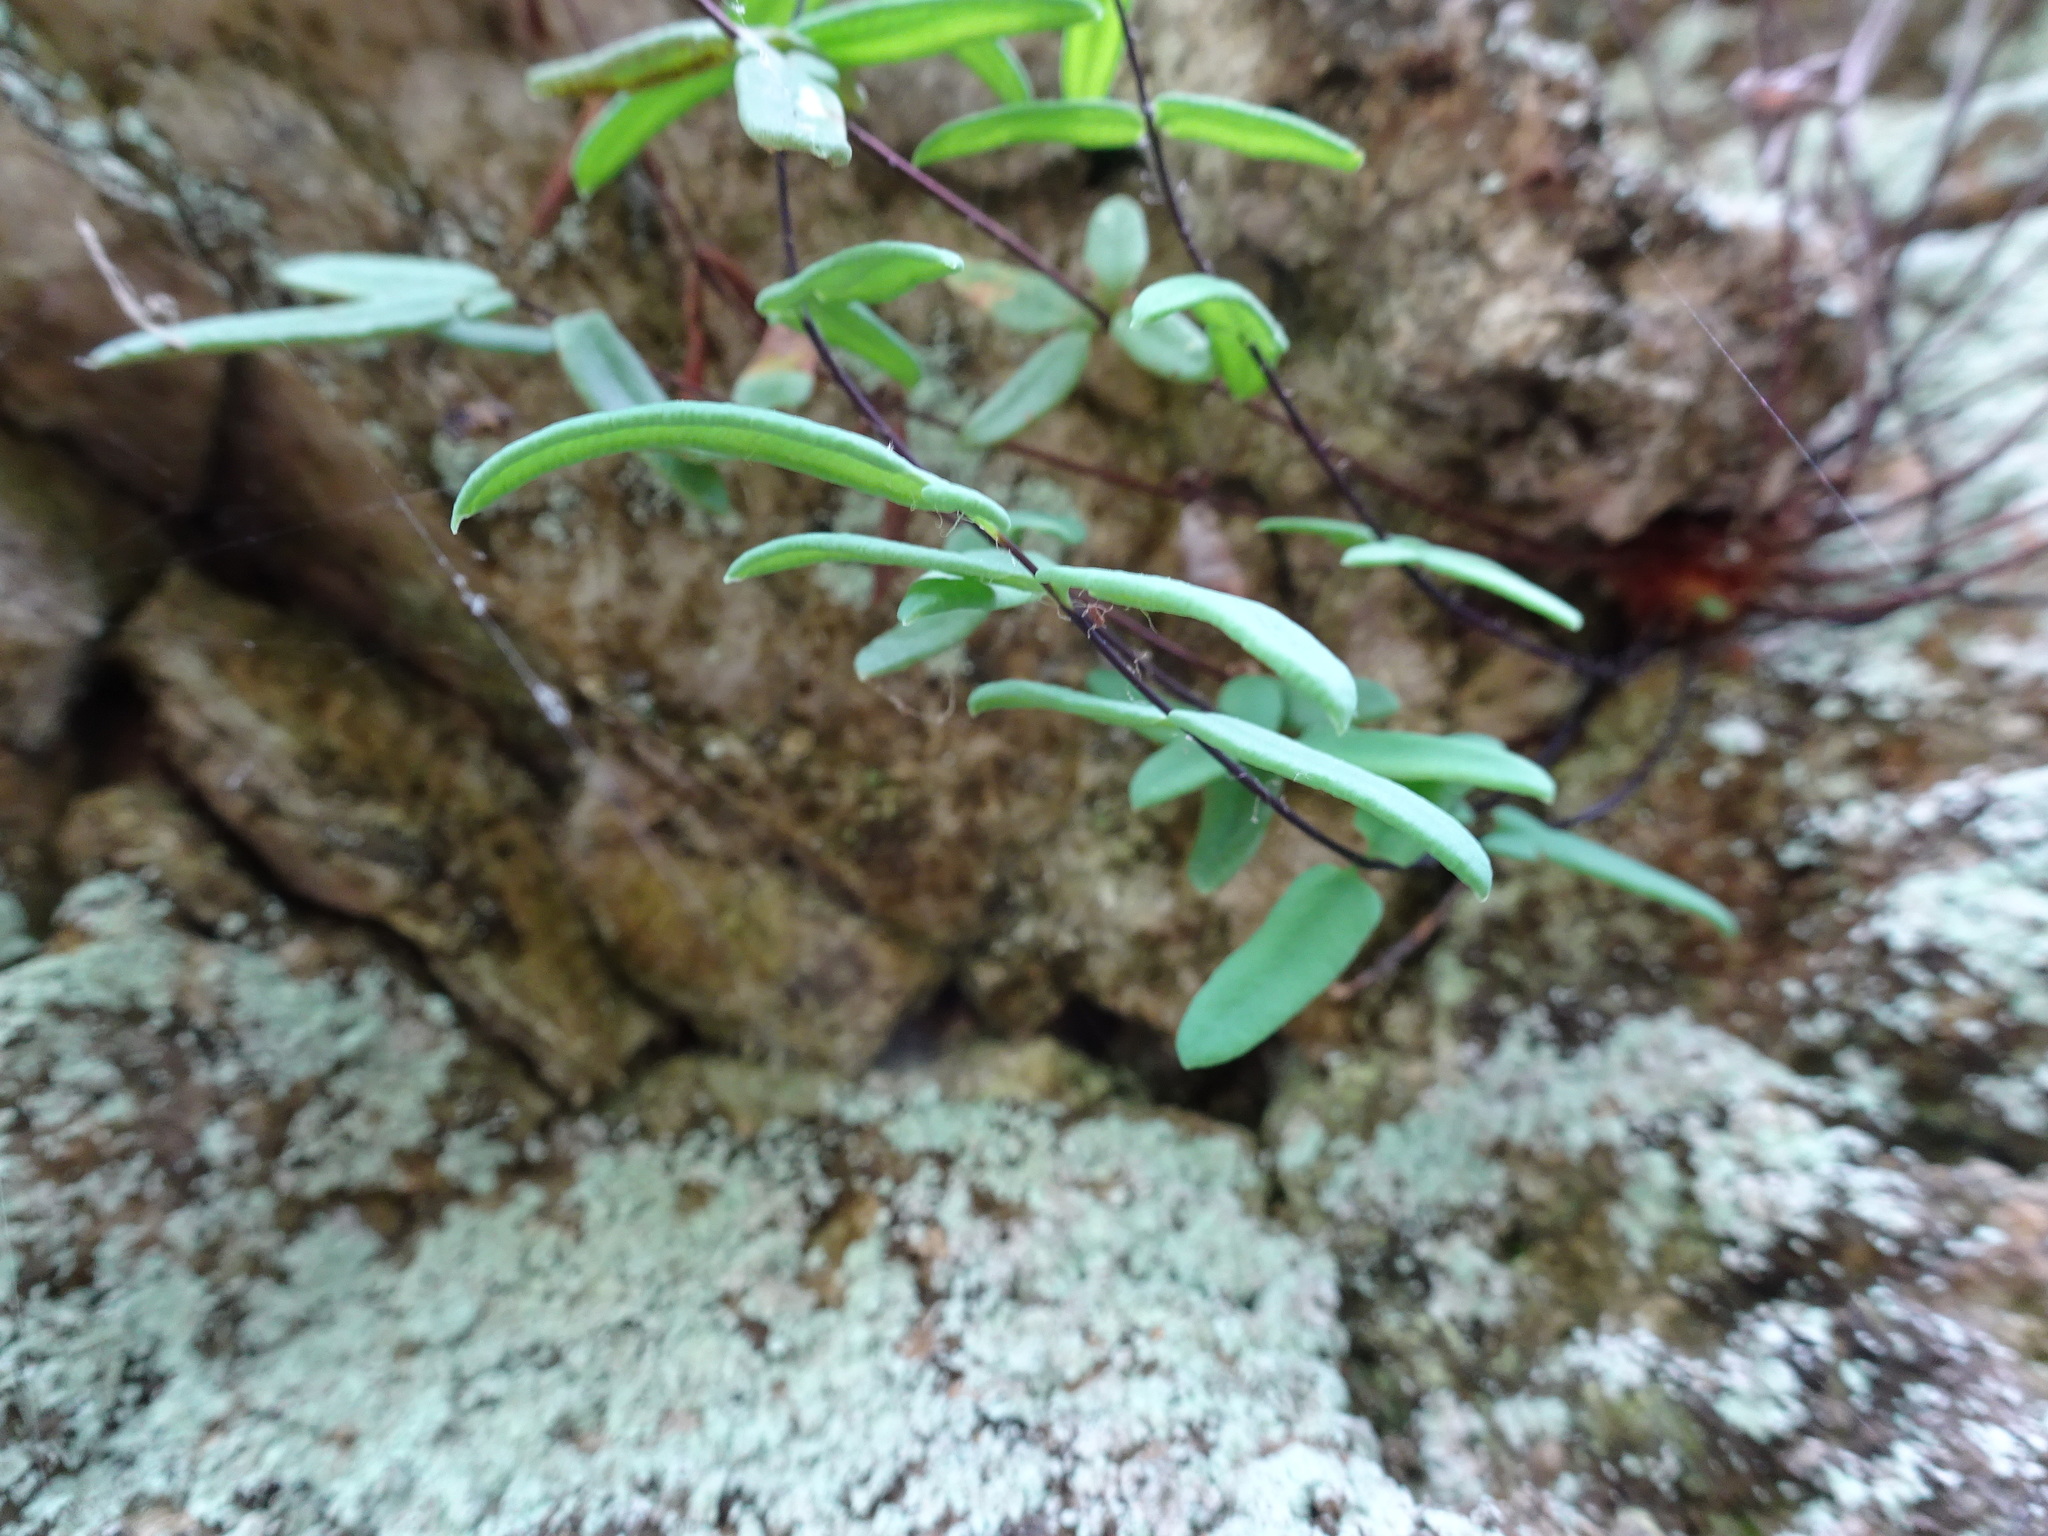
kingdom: Plantae
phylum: Tracheophyta
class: Polypodiopsida
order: Polypodiales
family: Pteridaceae
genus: Pellaea
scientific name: Pellaea glabella
